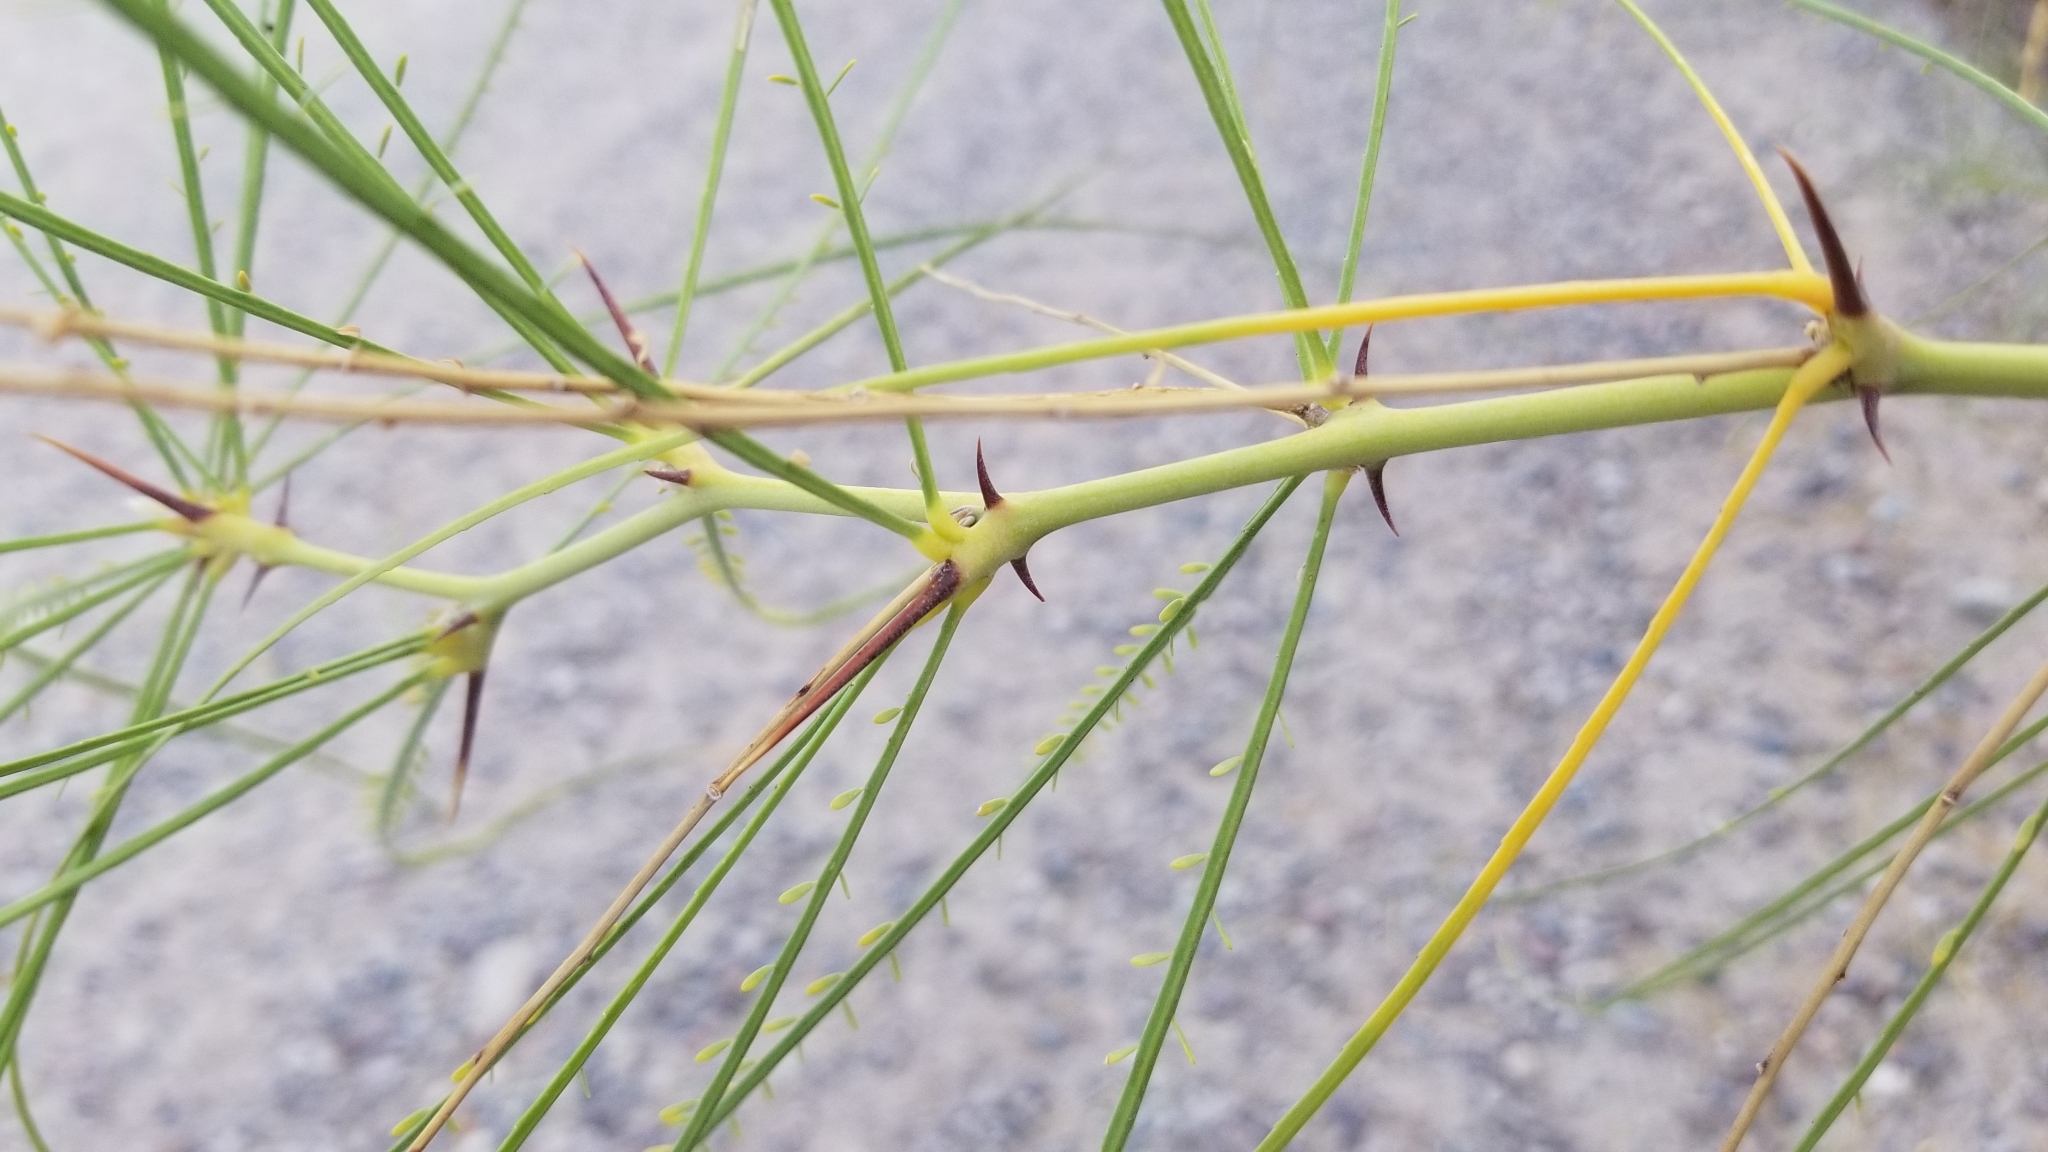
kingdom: Plantae
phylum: Tracheophyta
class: Magnoliopsida
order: Fabales
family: Fabaceae
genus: Parkinsonia
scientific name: Parkinsonia aculeata
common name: Jerusalem thorn
